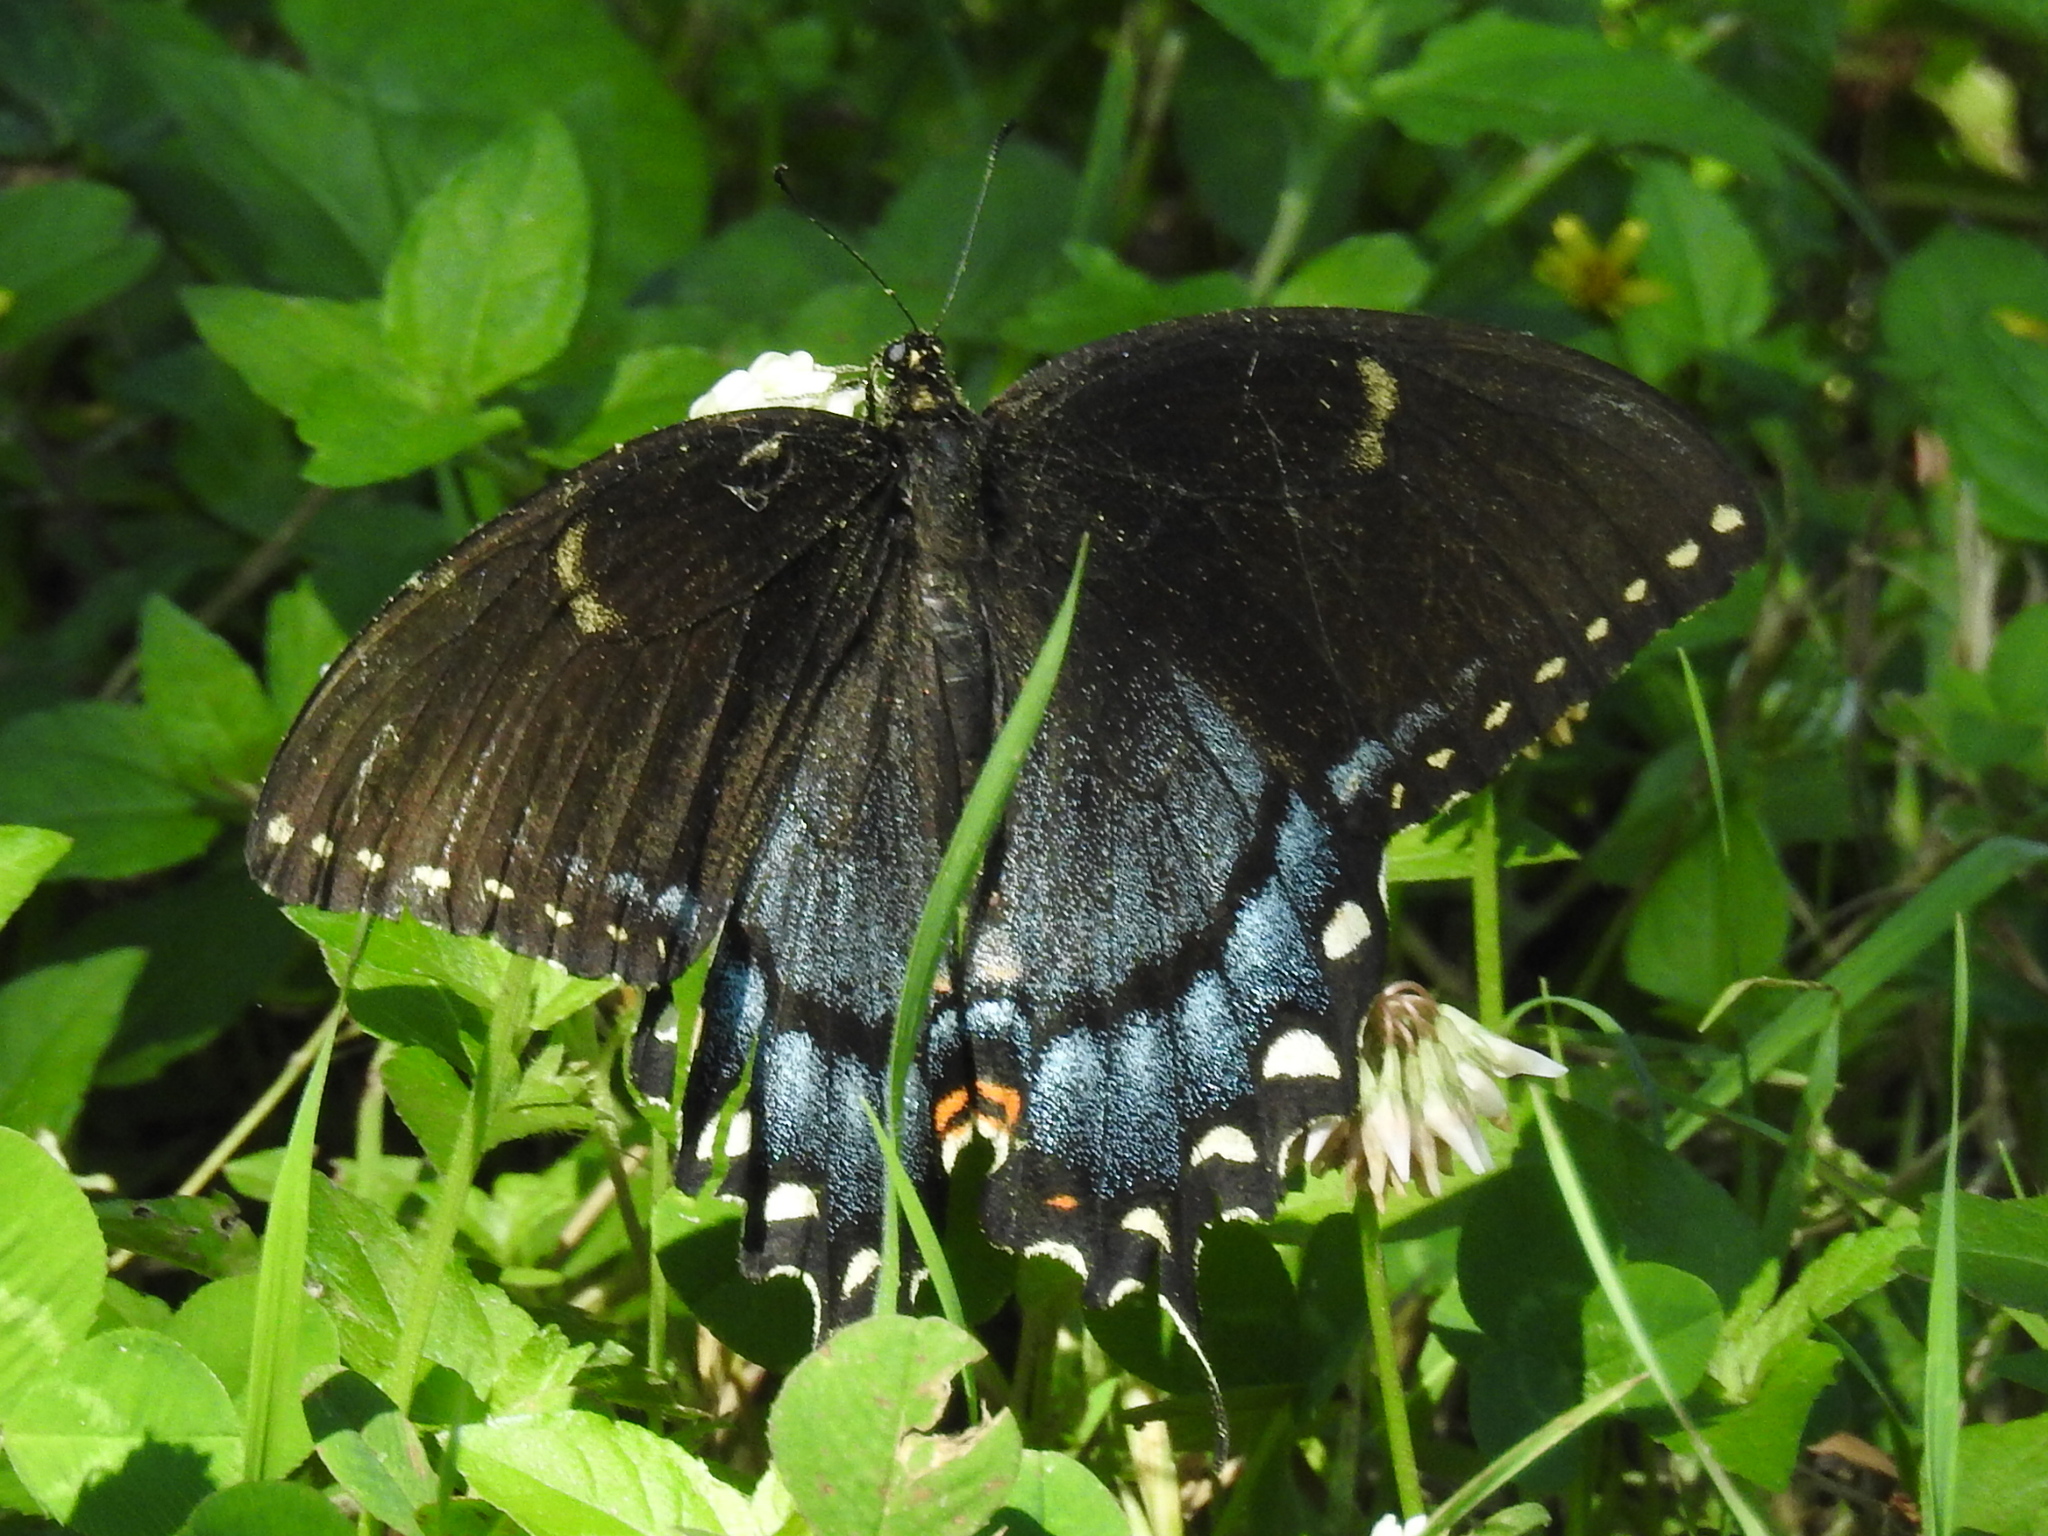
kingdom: Animalia
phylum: Arthropoda
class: Insecta
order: Lepidoptera
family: Papilionidae
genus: Papilio
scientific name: Papilio glaucus
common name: Tiger swallowtail
